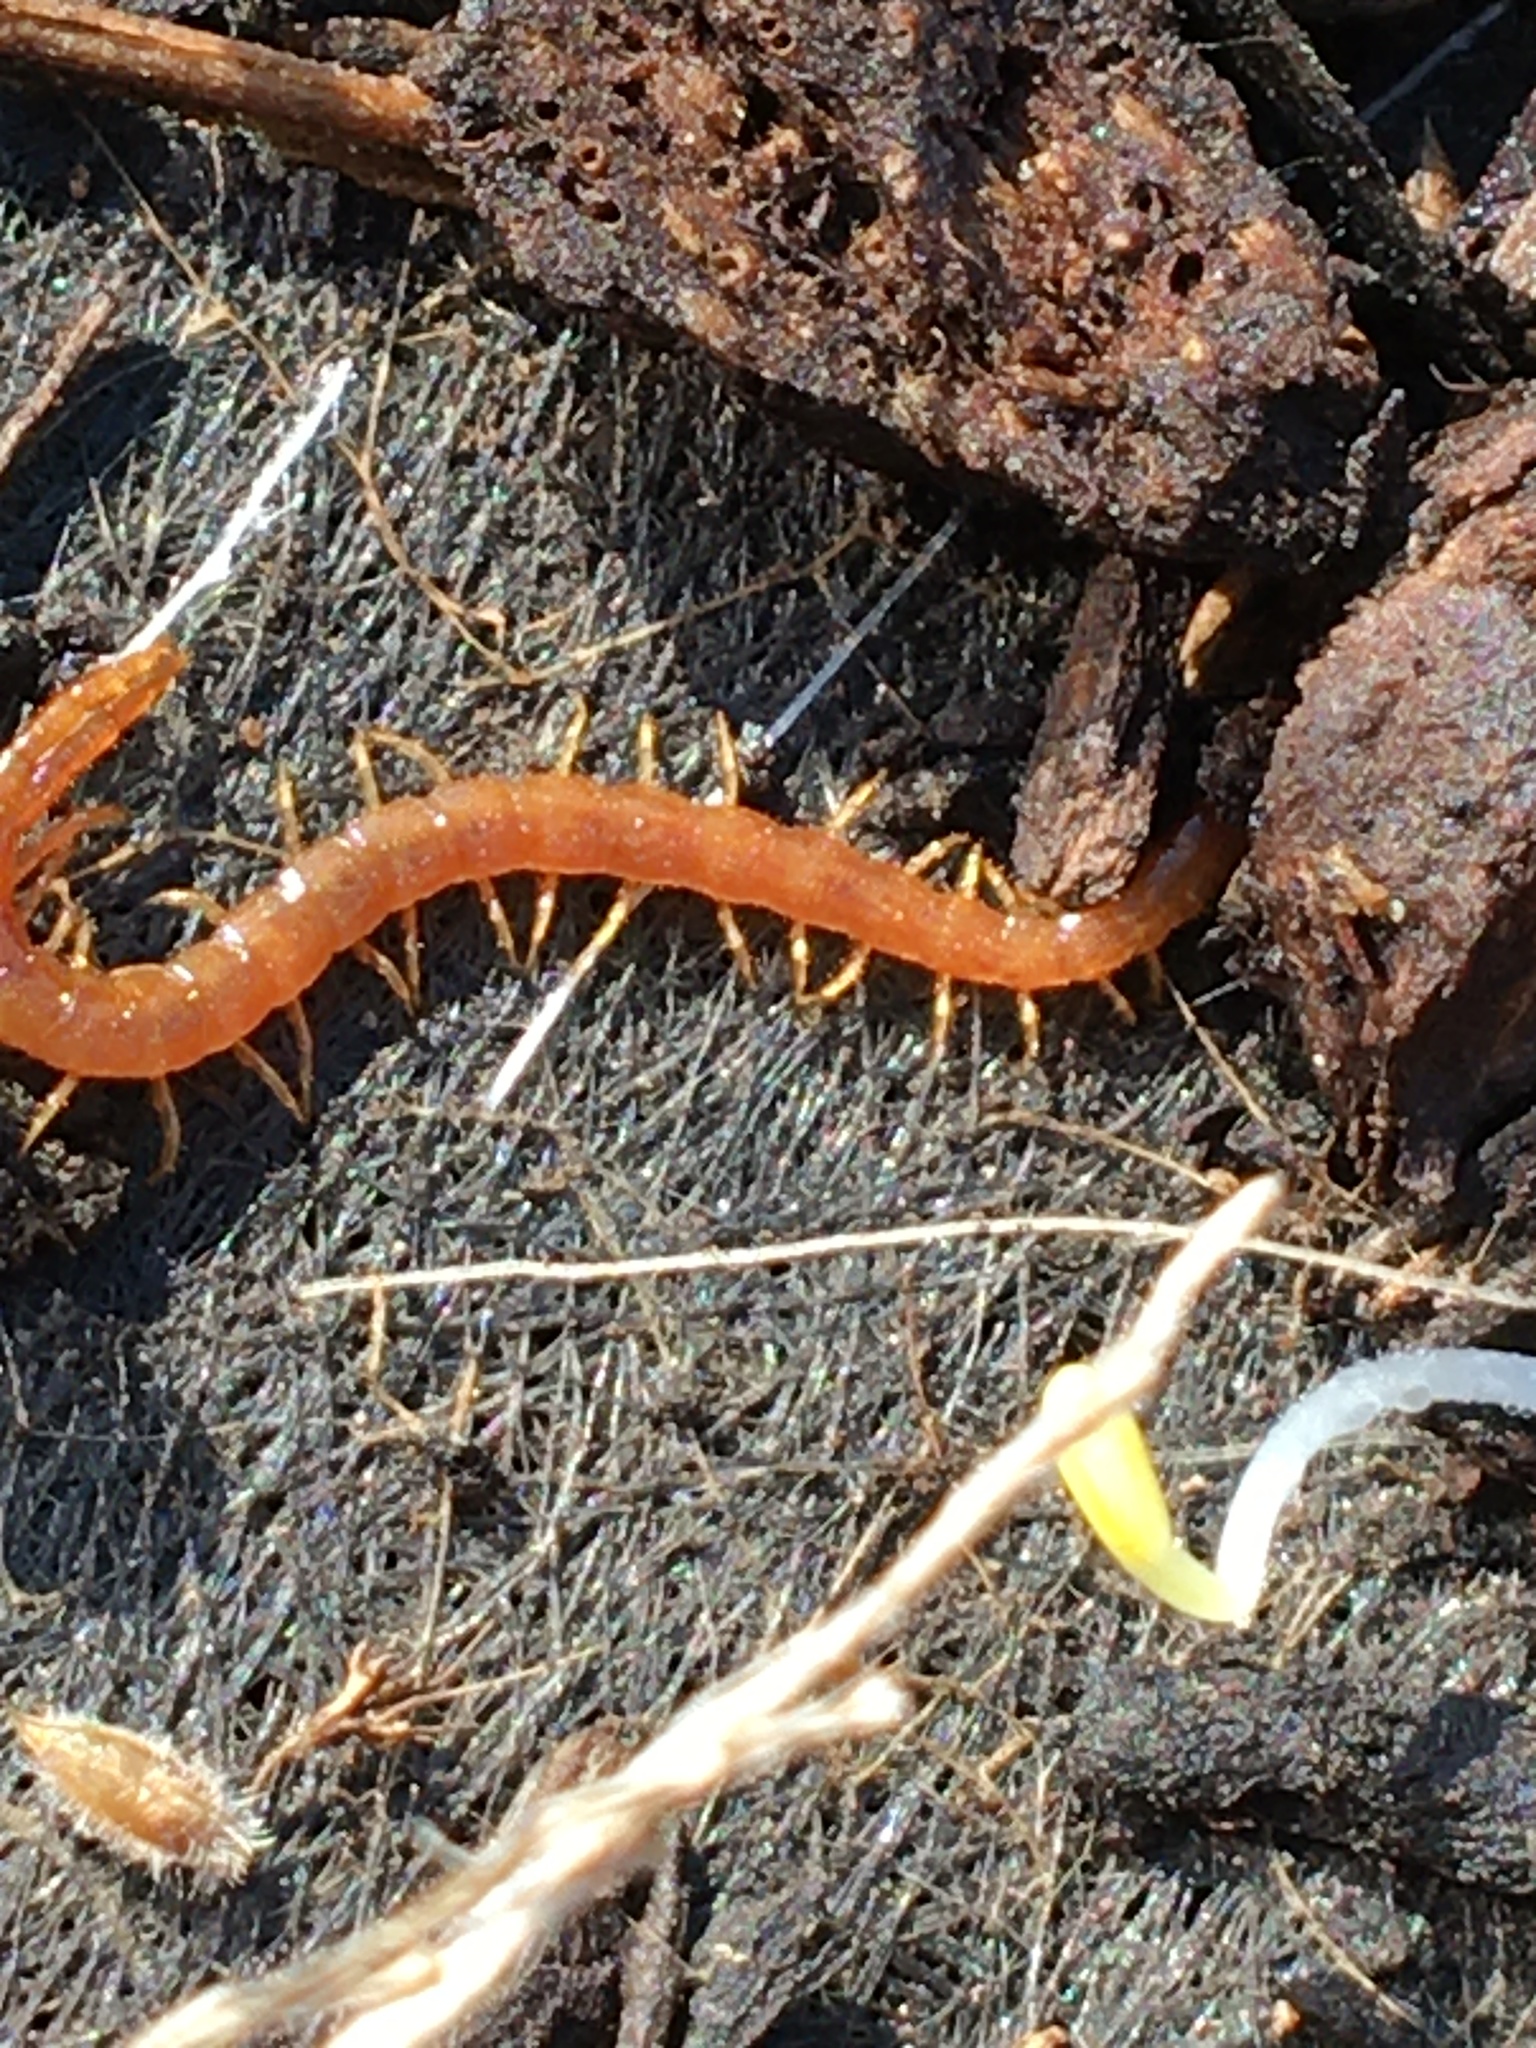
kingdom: Animalia
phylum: Arthropoda
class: Chilopoda
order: Scolopendromorpha
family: Cryptopidae
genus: Cryptops
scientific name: Cryptops
